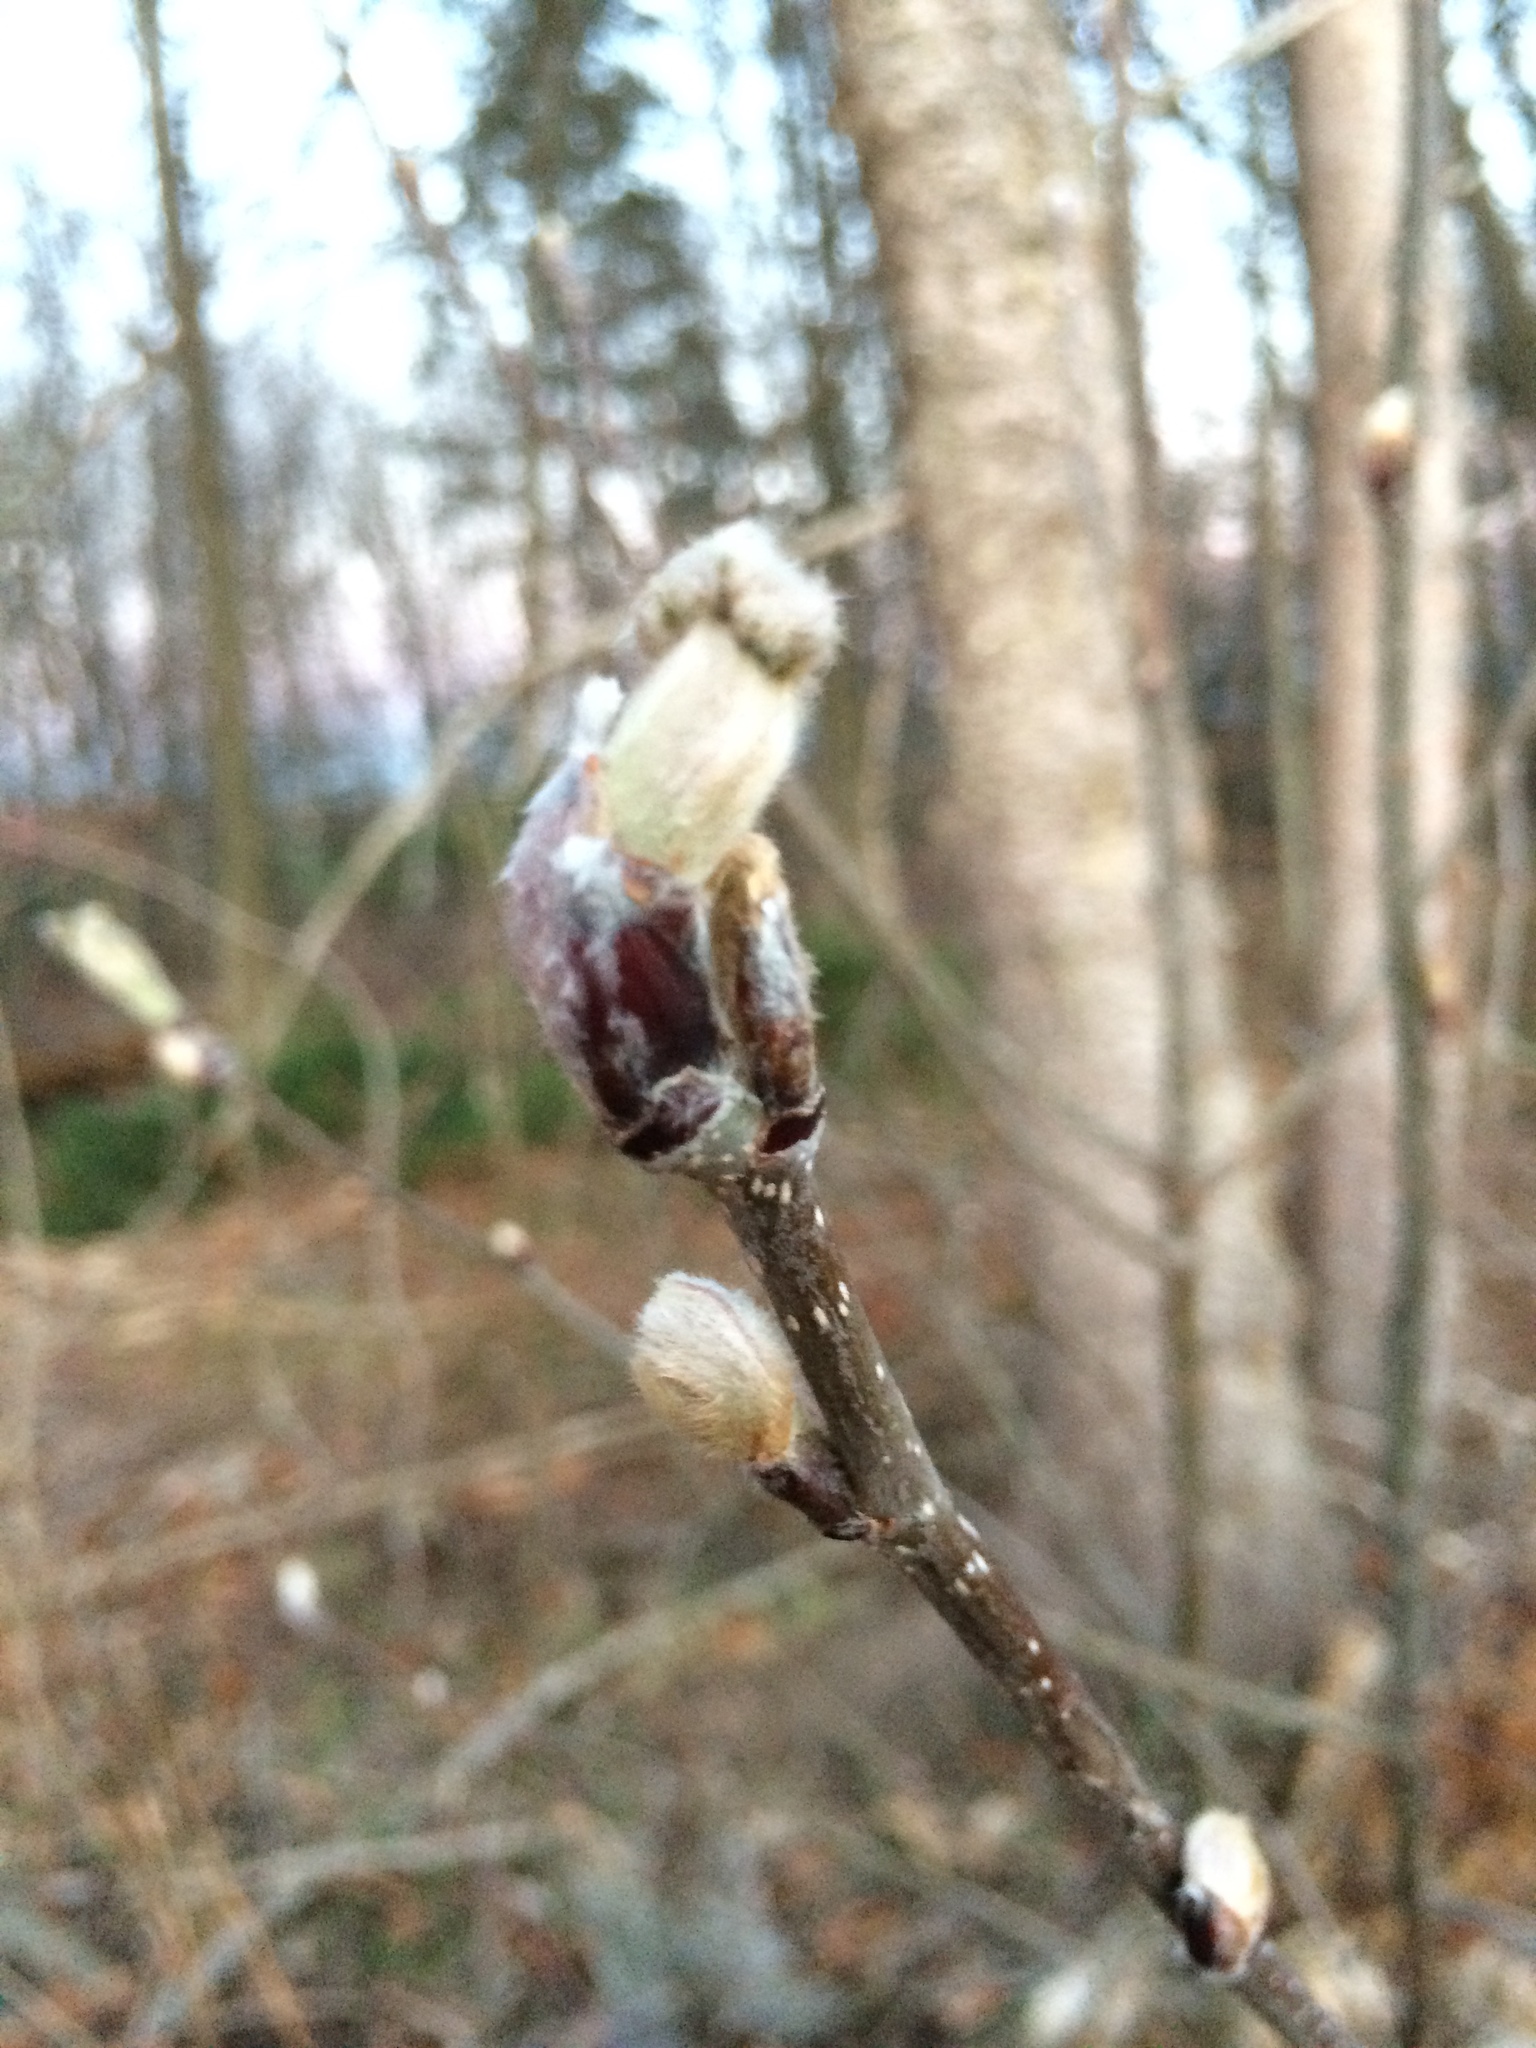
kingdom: Plantae
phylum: Tracheophyta
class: Magnoliopsida
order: Rosales
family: Rosaceae
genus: Sorbus
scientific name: Sorbus aucuparia
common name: Rowan
